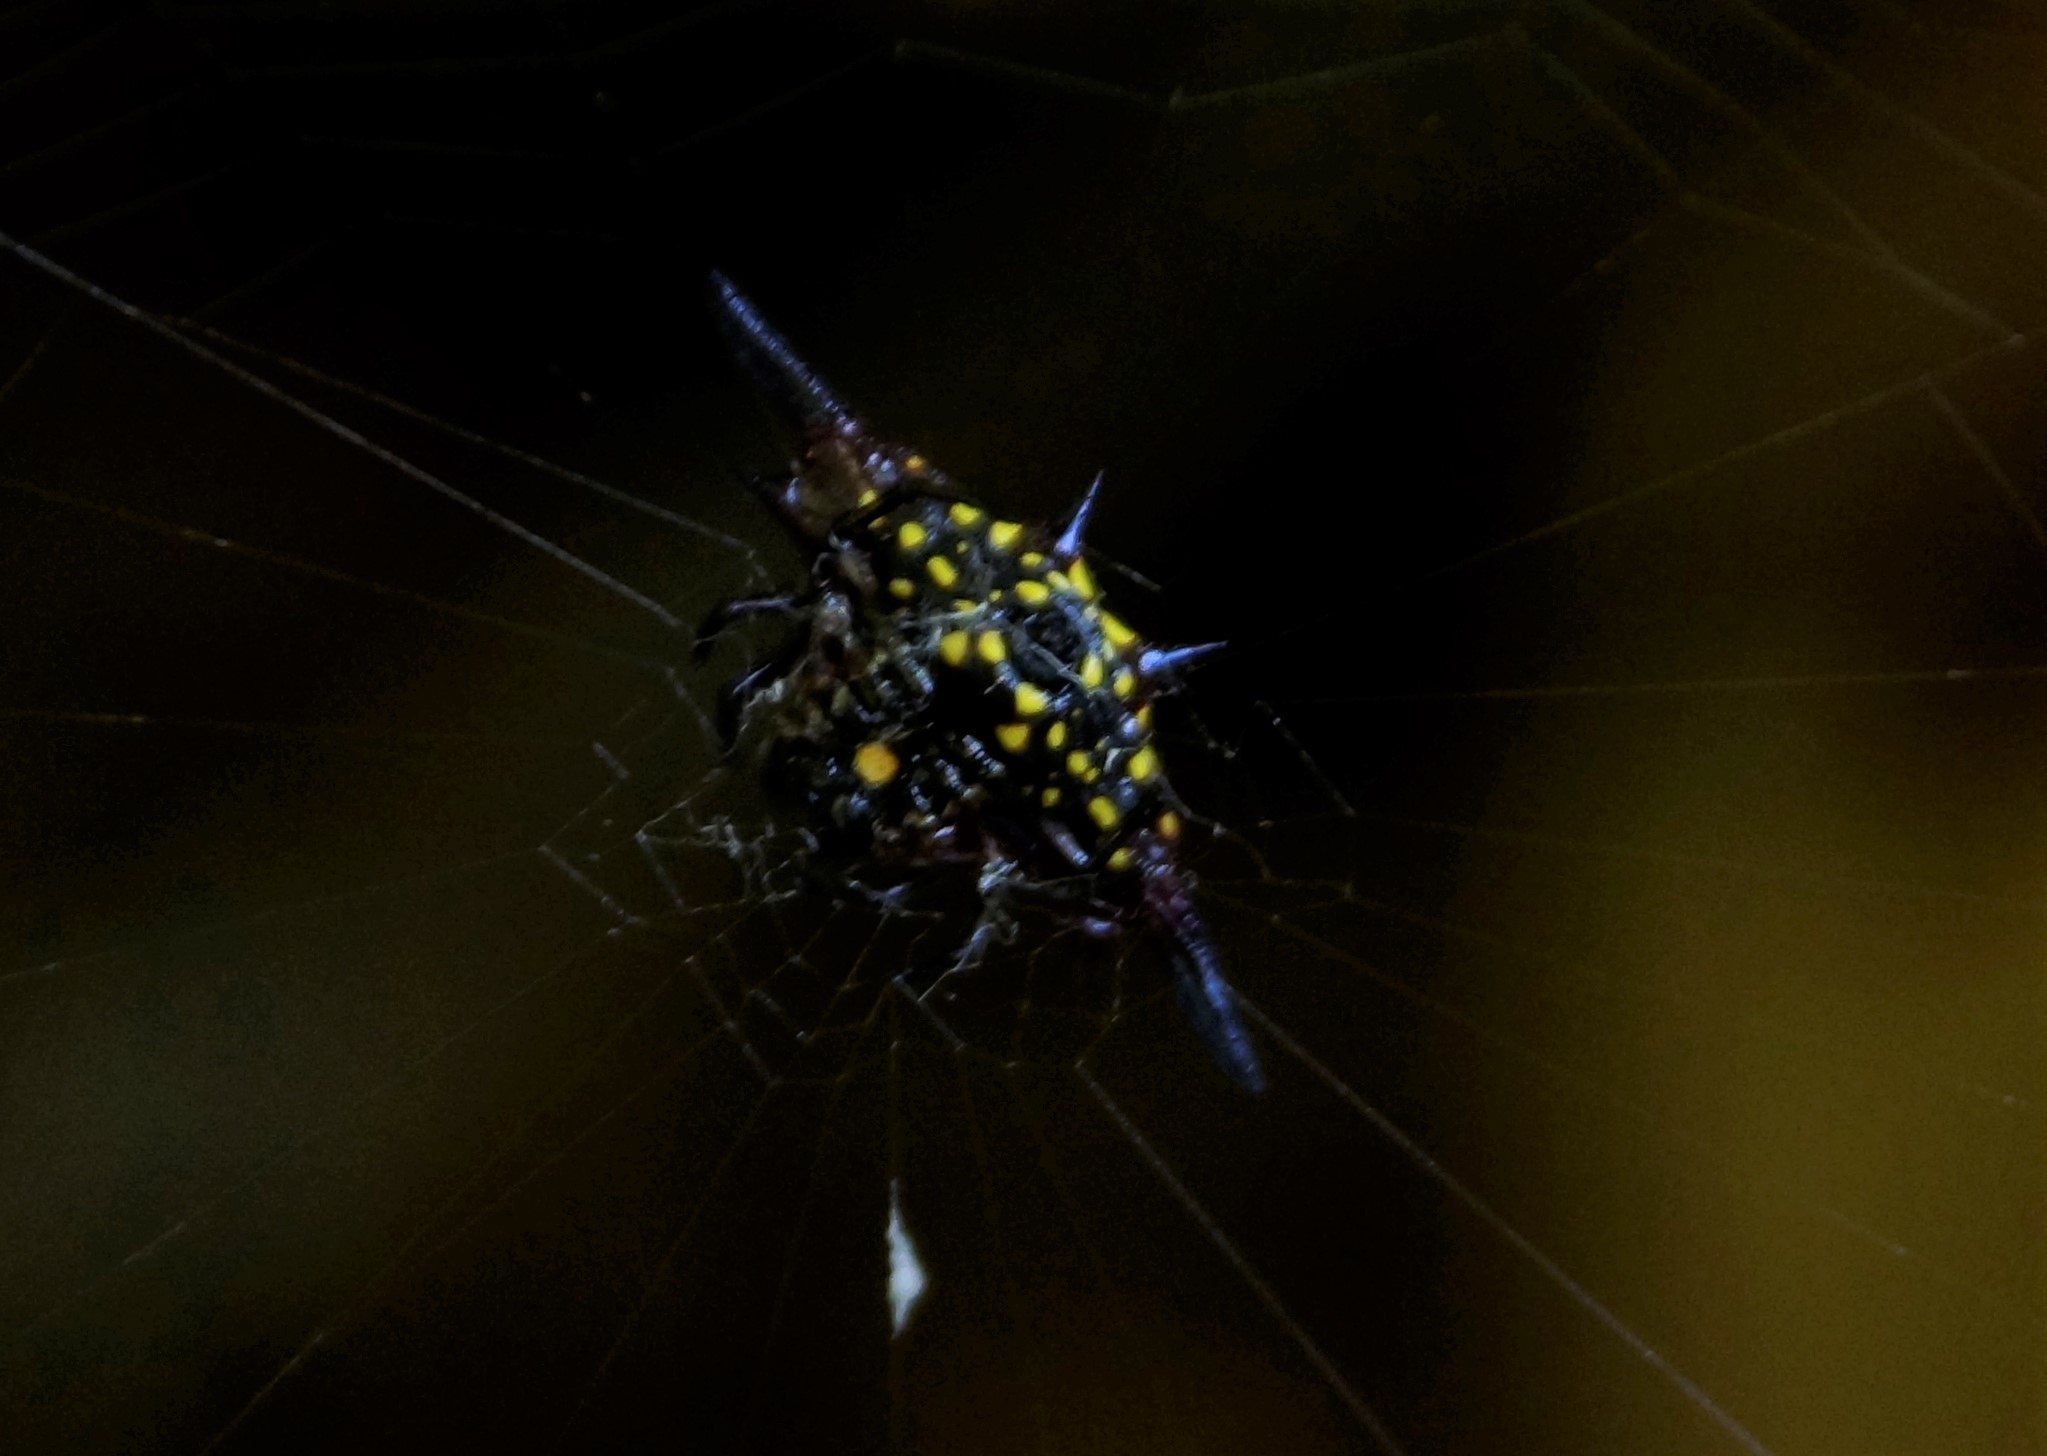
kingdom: Animalia
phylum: Arthropoda
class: Arachnida
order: Araneae
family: Araneidae
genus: Gasteracantha
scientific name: Gasteracantha fornicata
